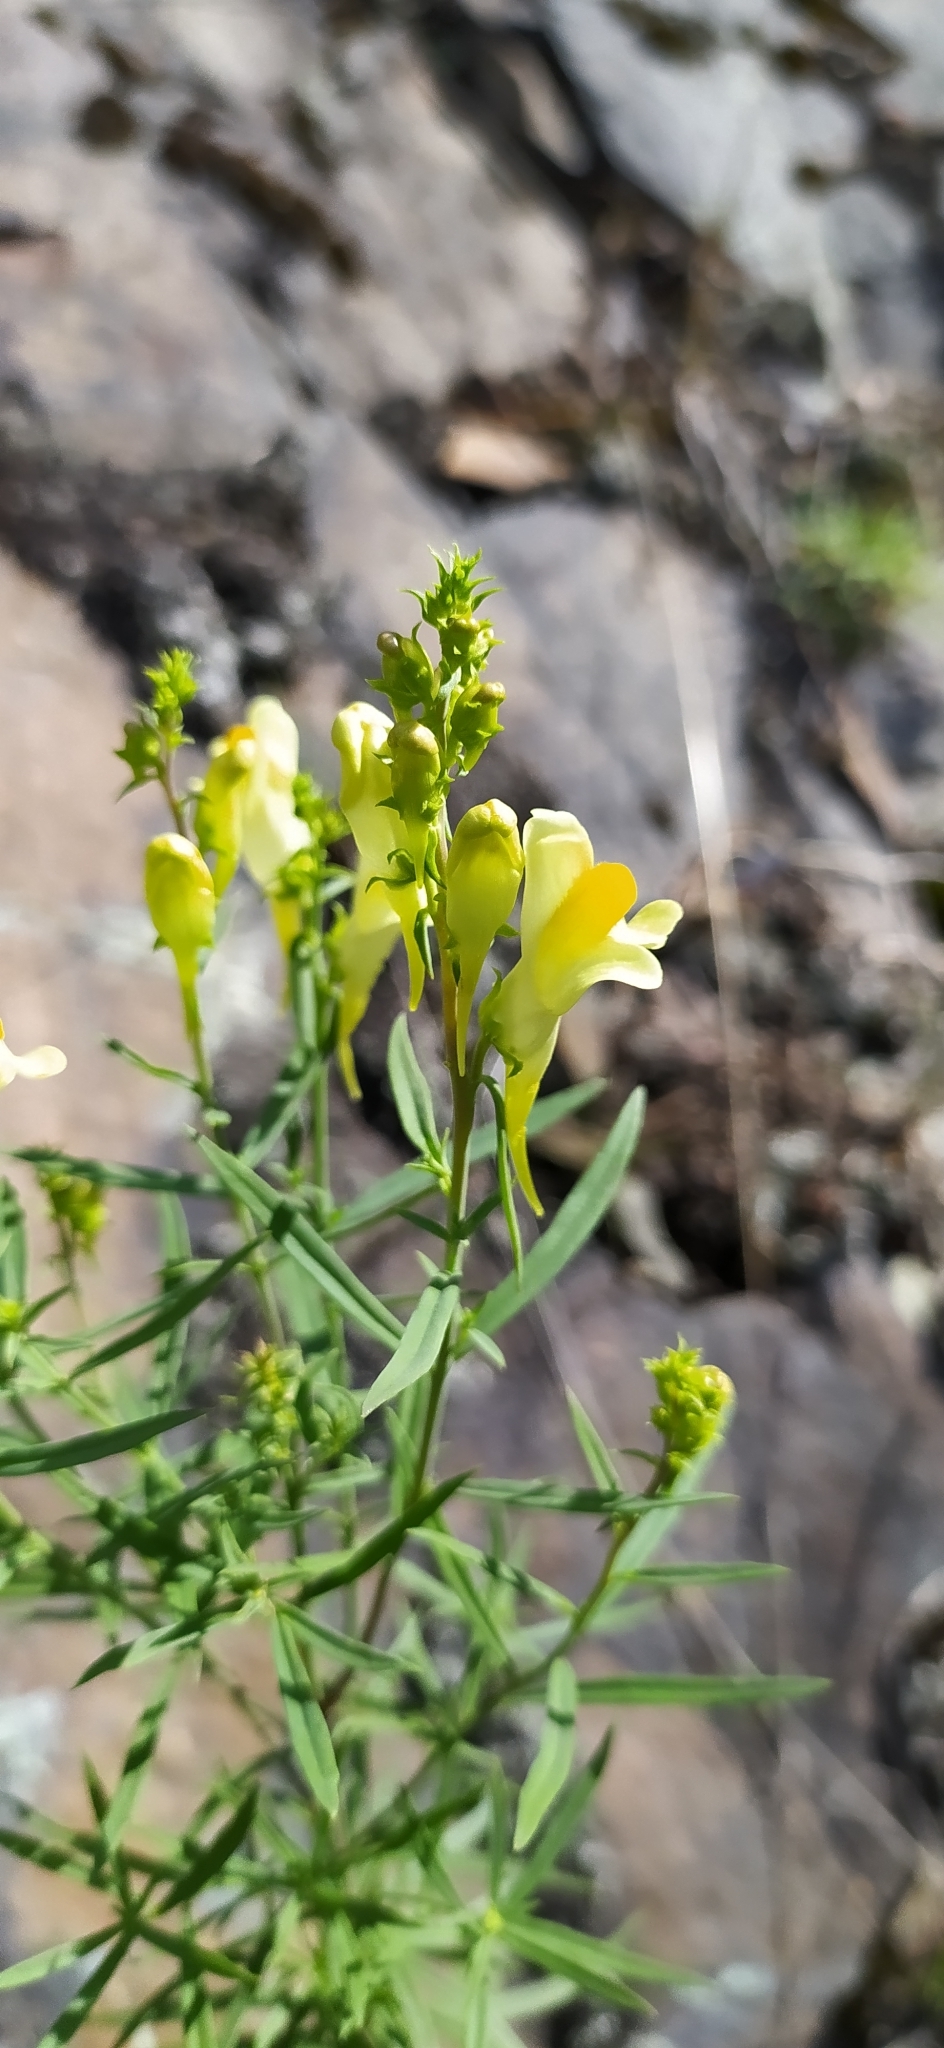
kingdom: Plantae
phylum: Tracheophyta
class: Magnoliopsida
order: Lamiales
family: Plantaginaceae
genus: Linaria
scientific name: Linaria vulgaris
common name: Butter and eggs
